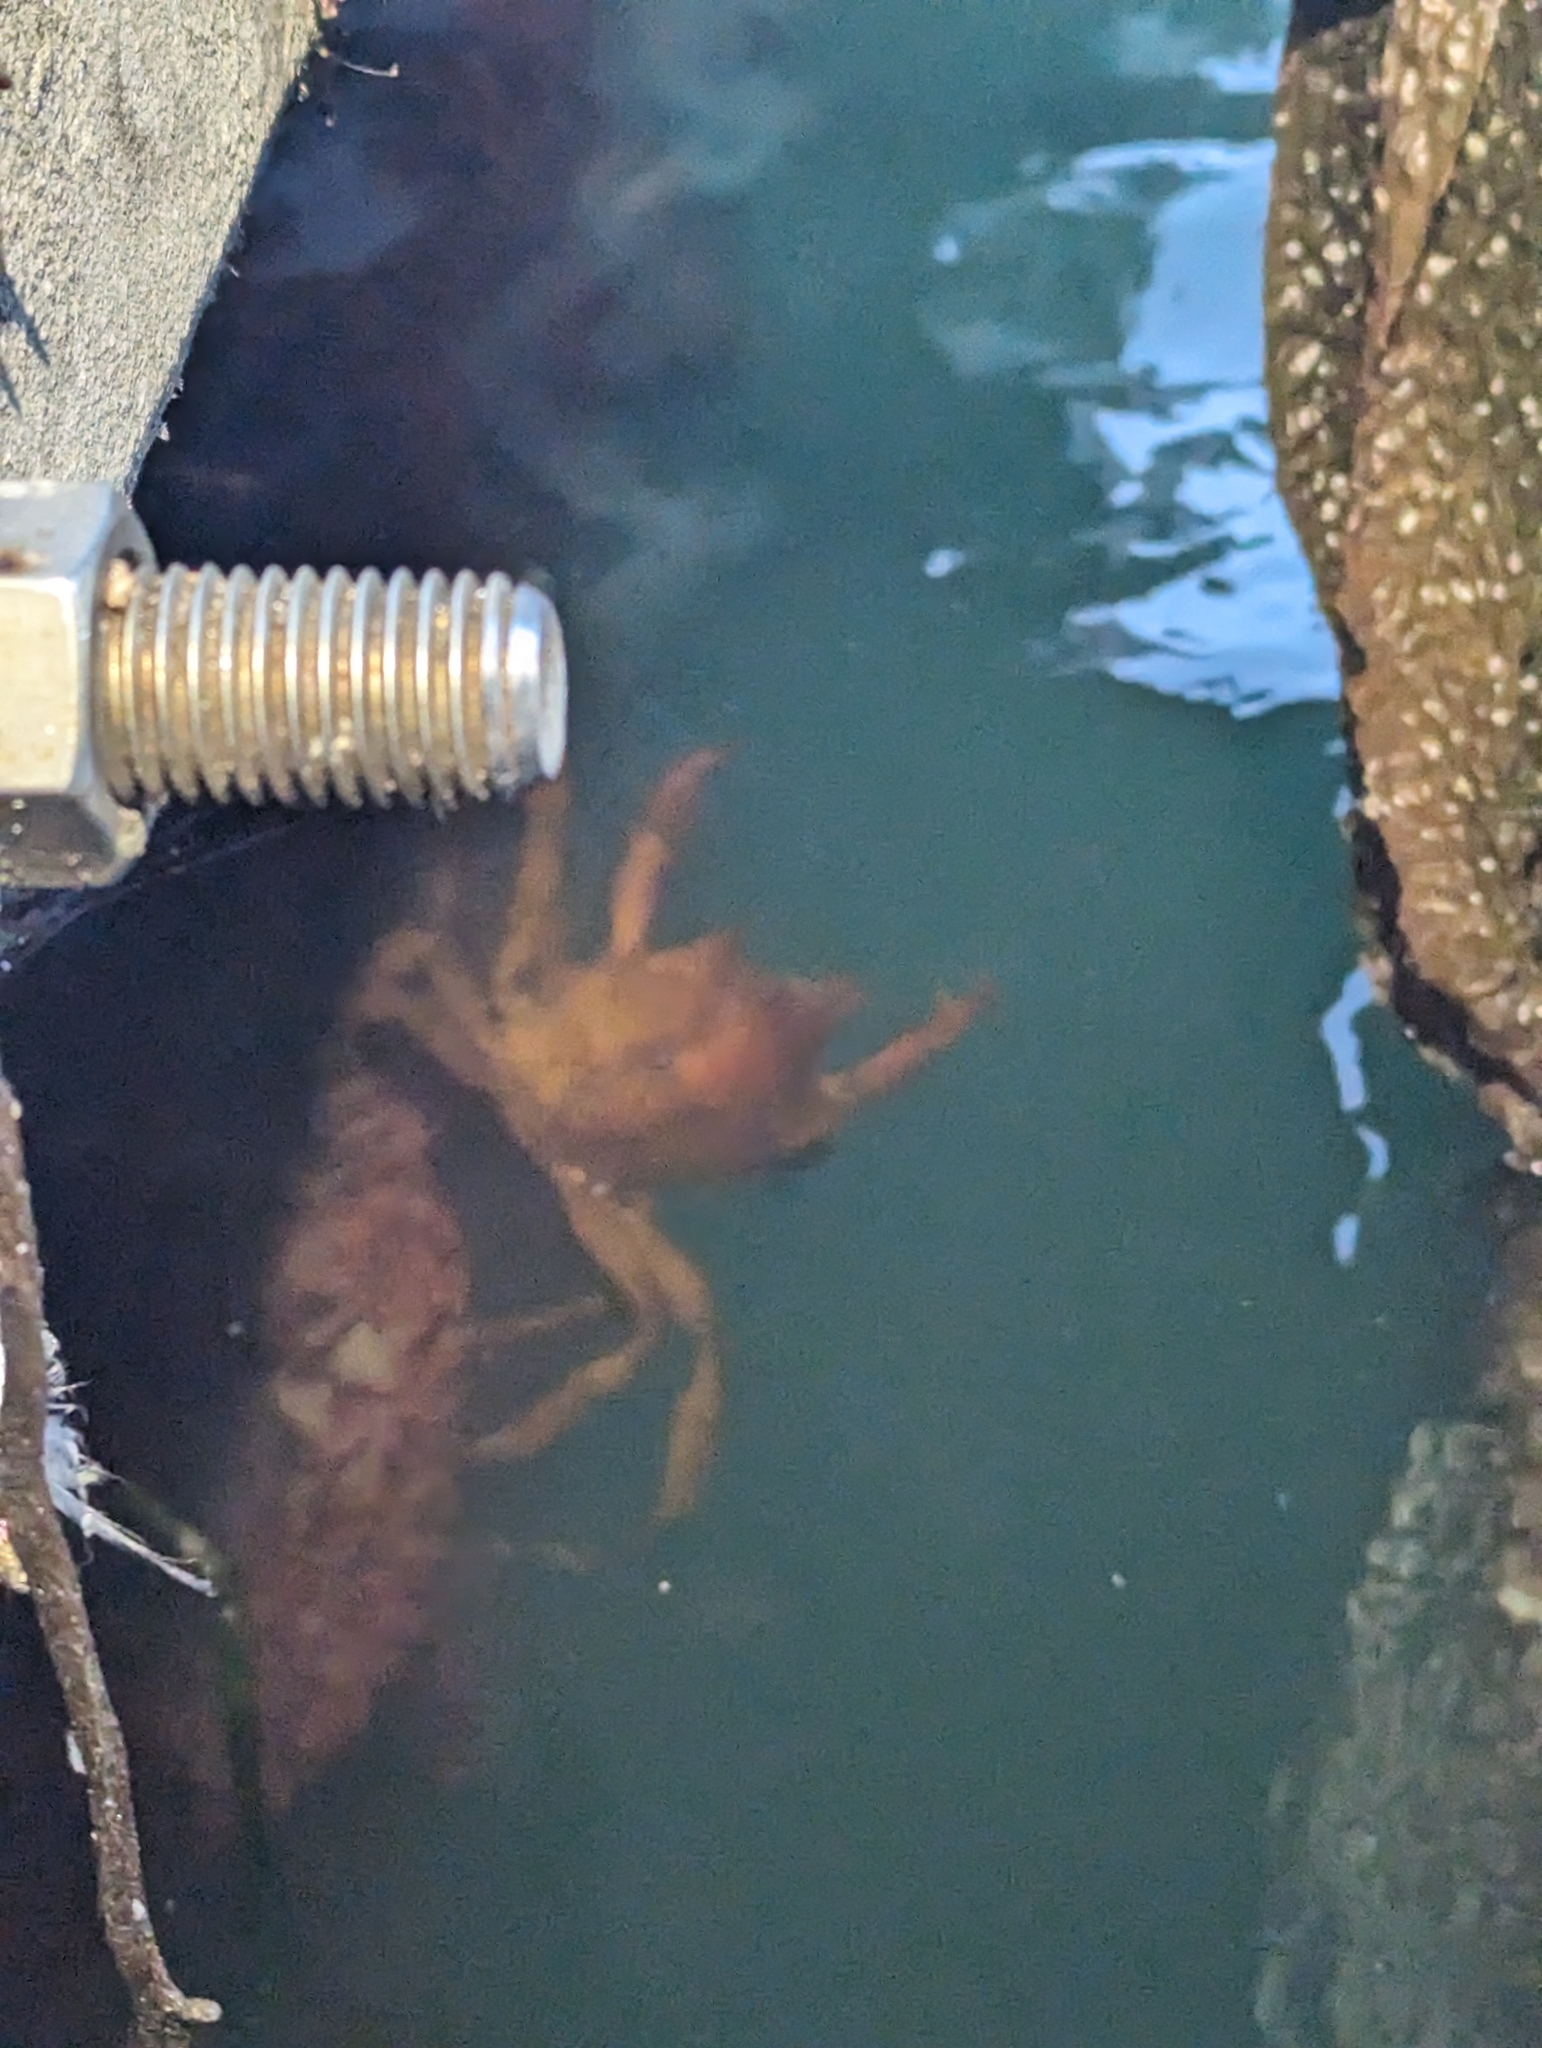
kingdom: Animalia
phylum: Arthropoda
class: Malacostraca
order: Decapoda
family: Epialtidae
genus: Pugettia
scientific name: Pugettia producta
